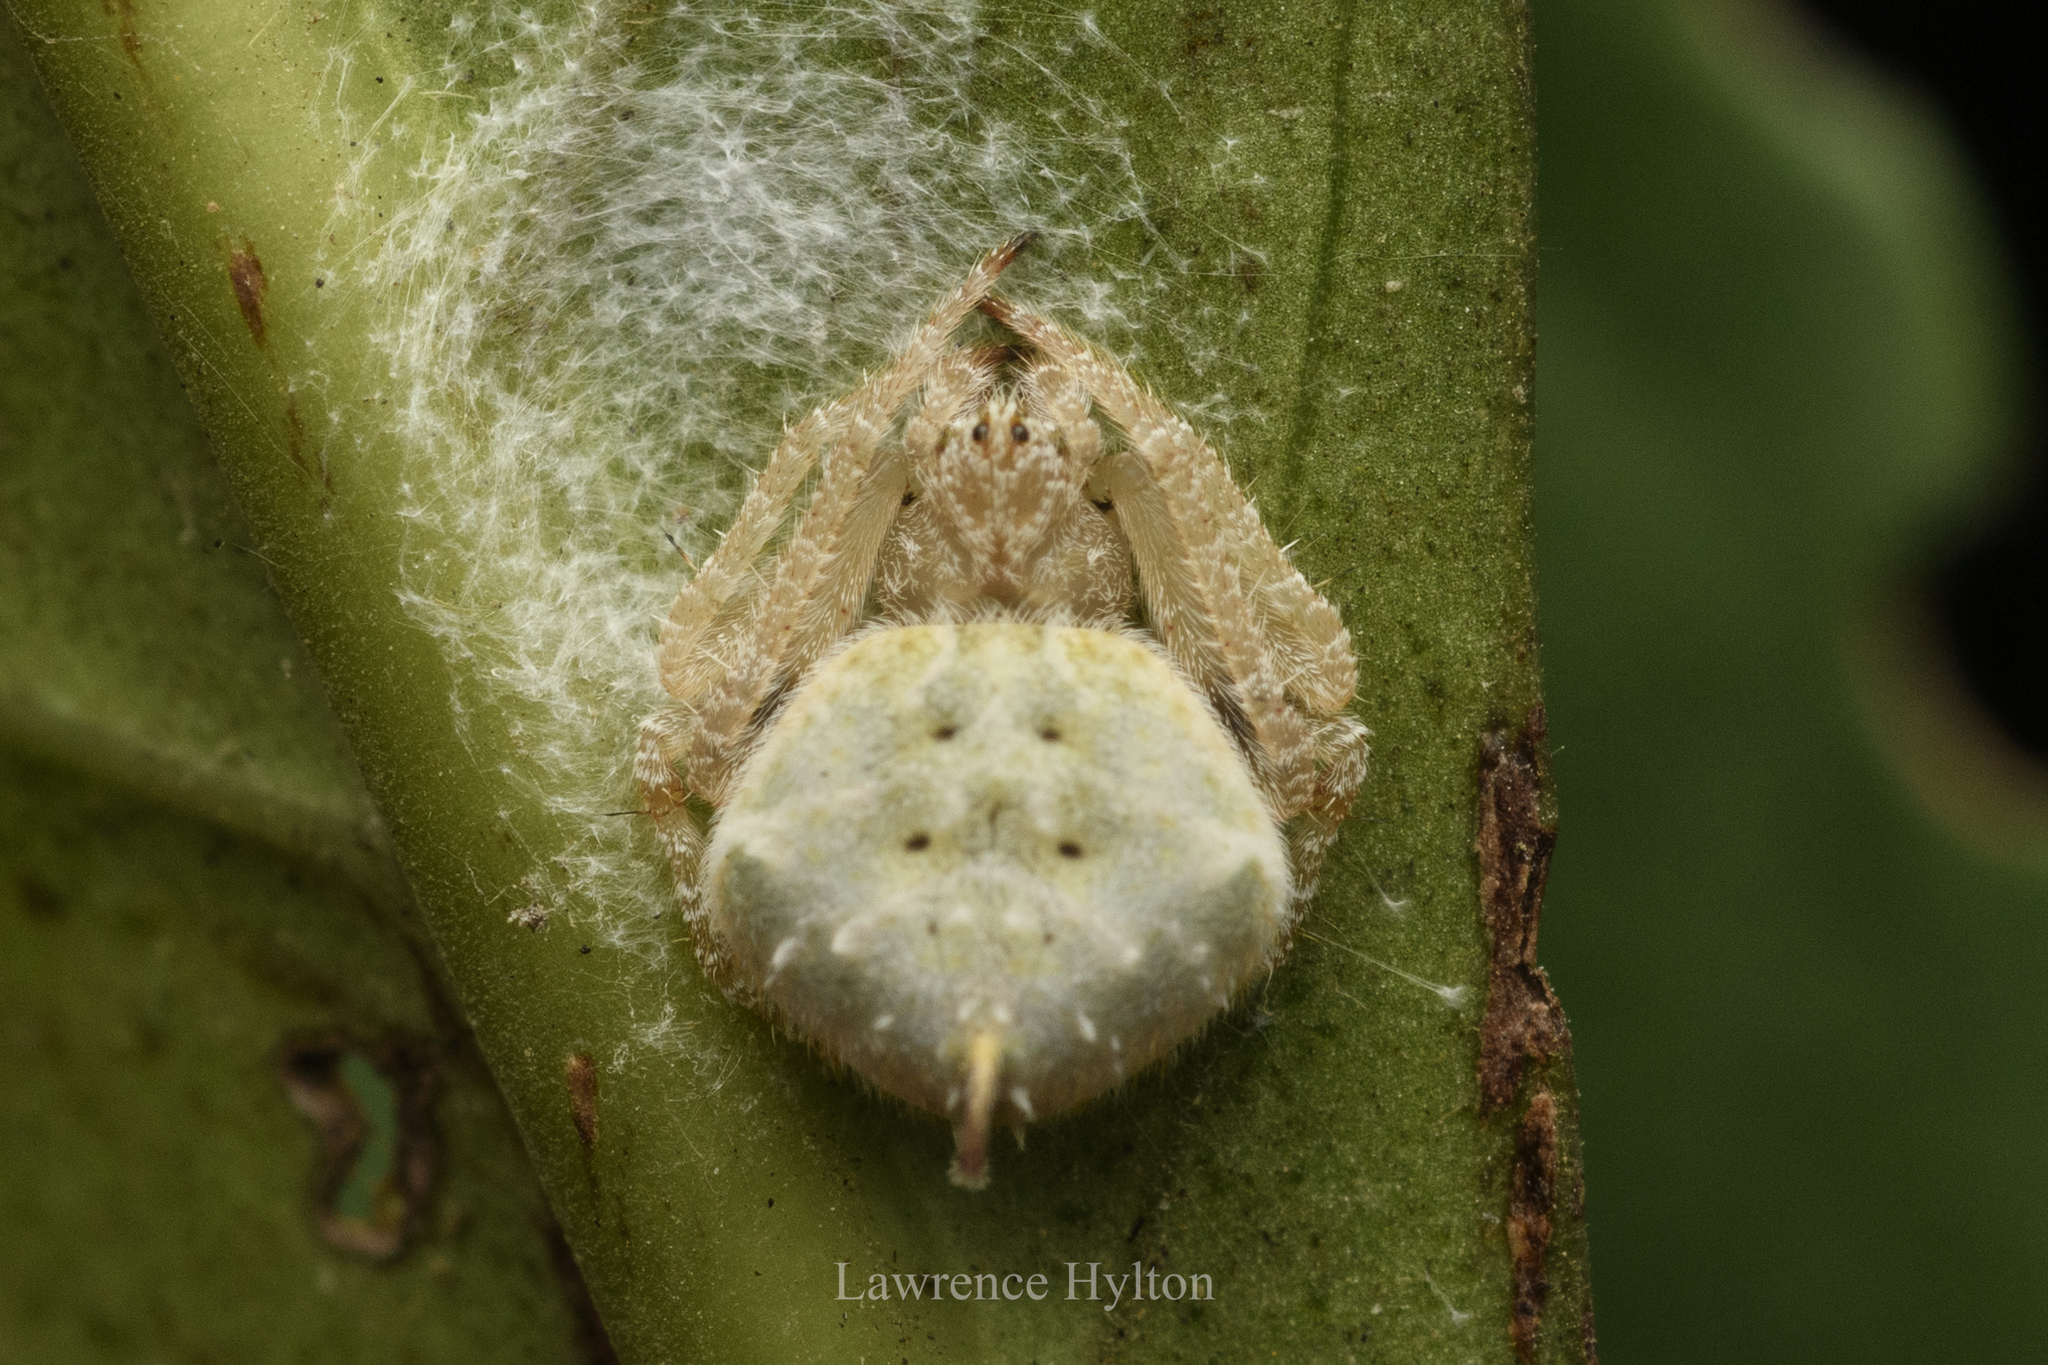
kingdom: Animalia
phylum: Arthropoda
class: Arachnida
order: Araneae
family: Araneidae
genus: Eriovixia
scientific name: Eriovixia laglaizei
